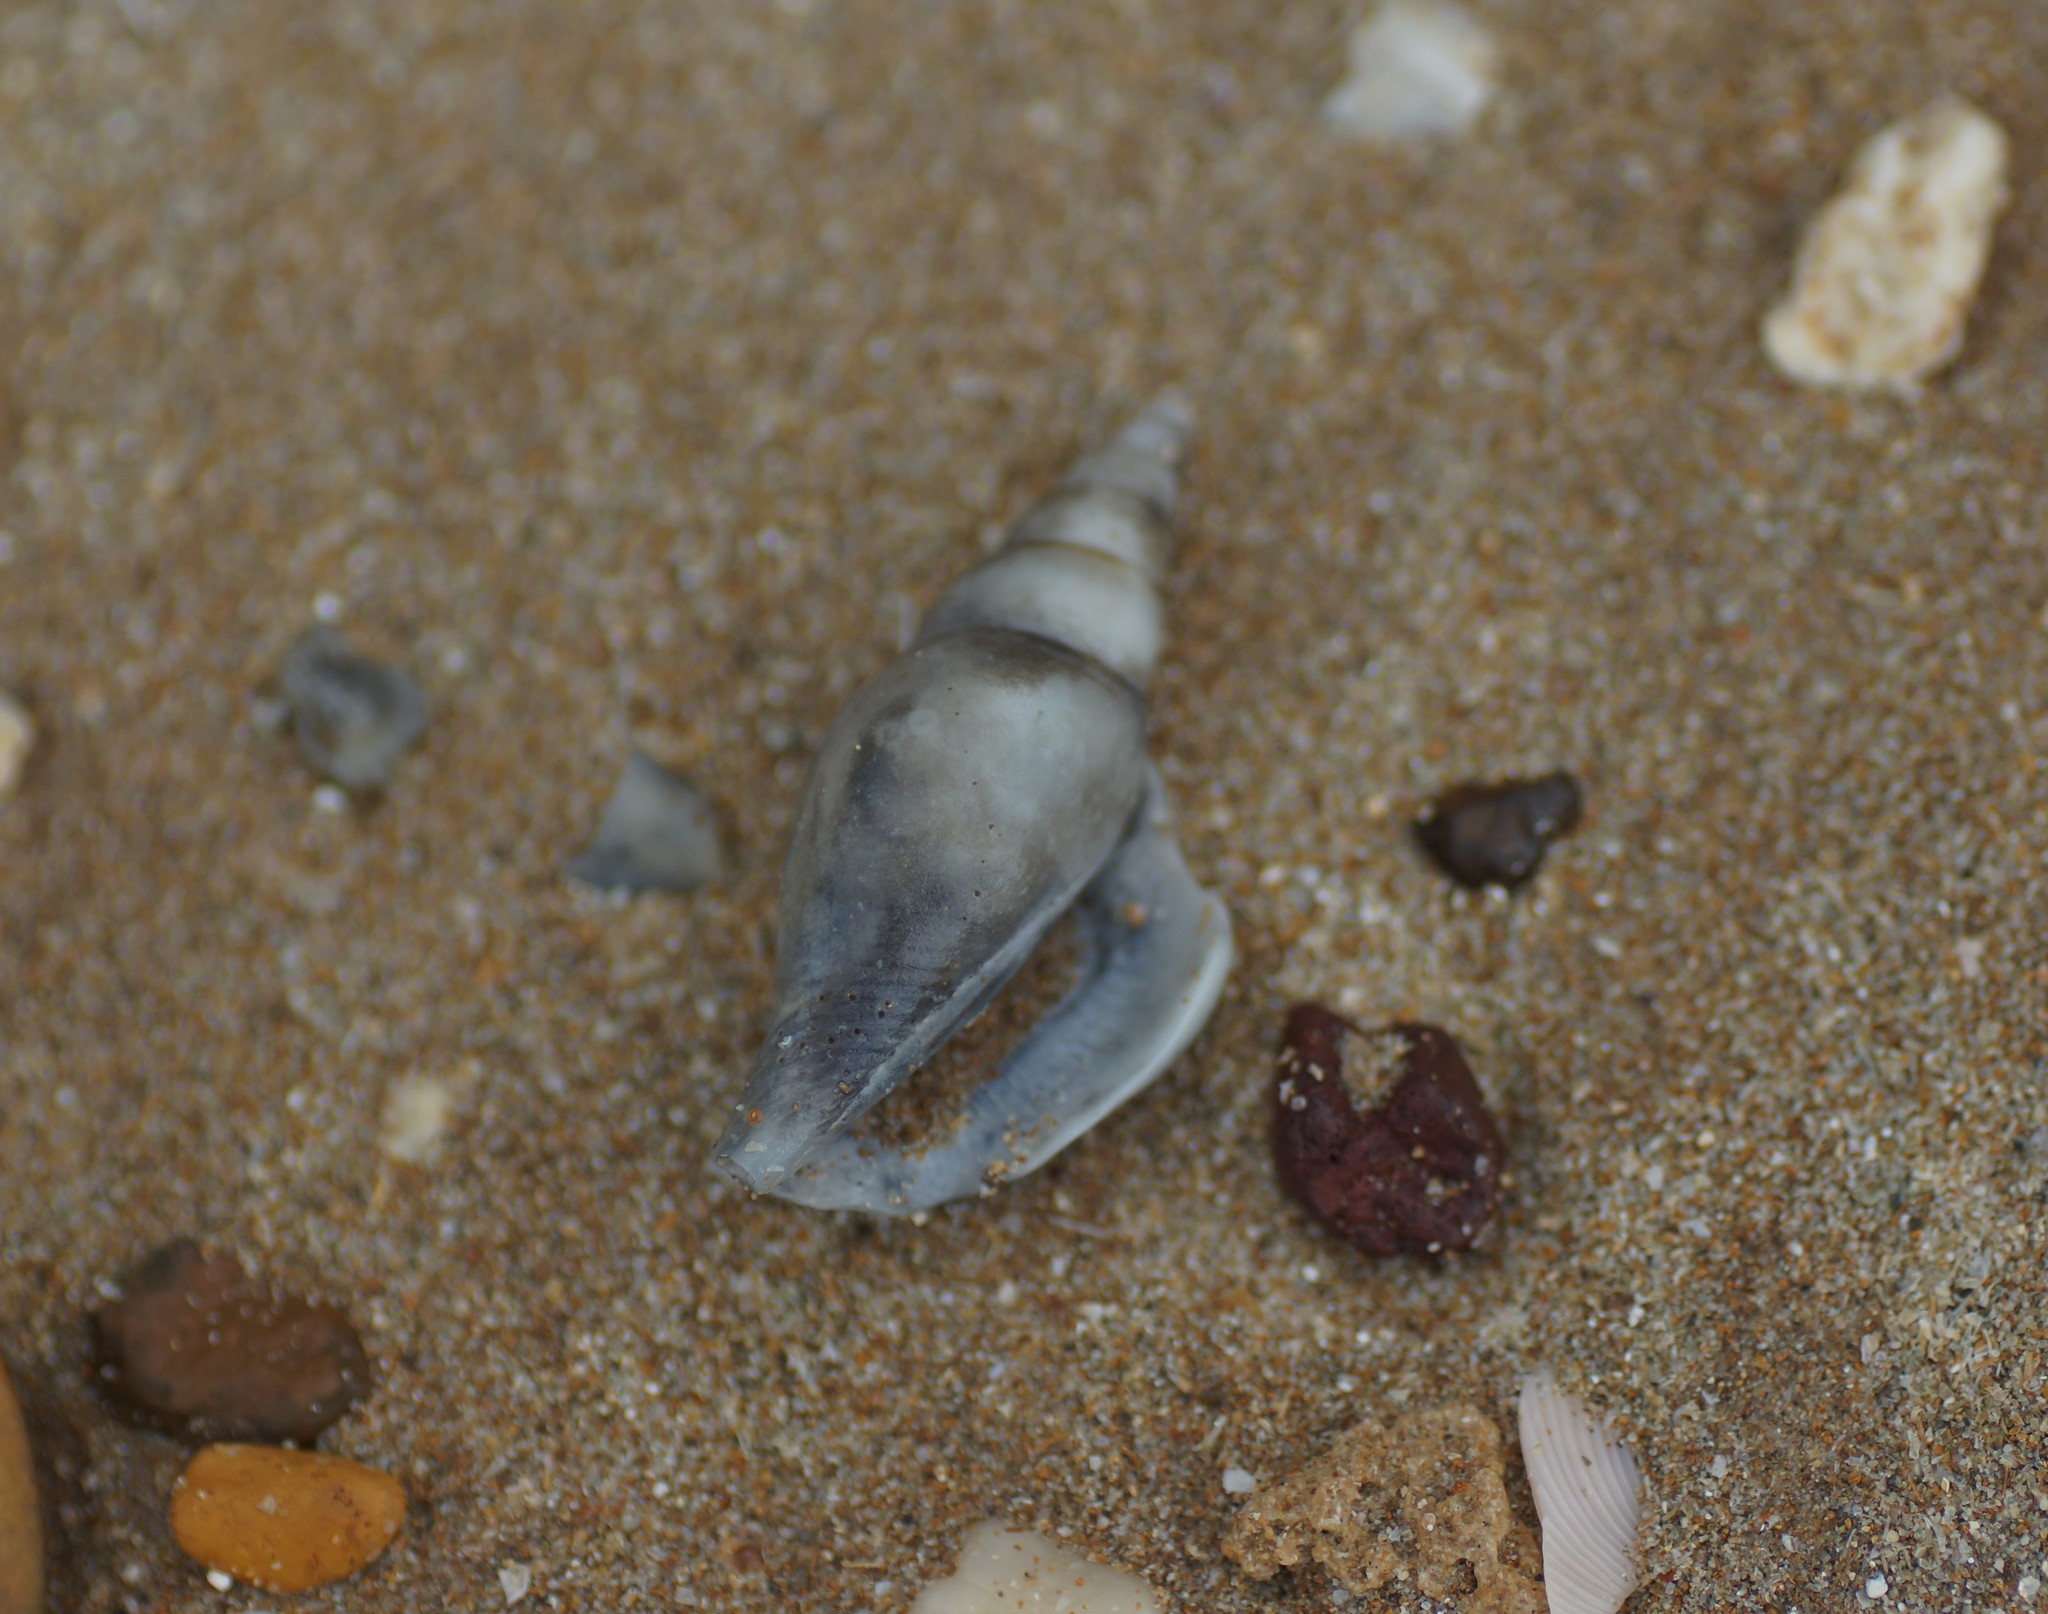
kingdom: Animalia
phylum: Mollusca
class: Gastropoda
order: Littorinimorpha
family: Strombidae
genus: Doxander
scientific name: Doxander campbellii
